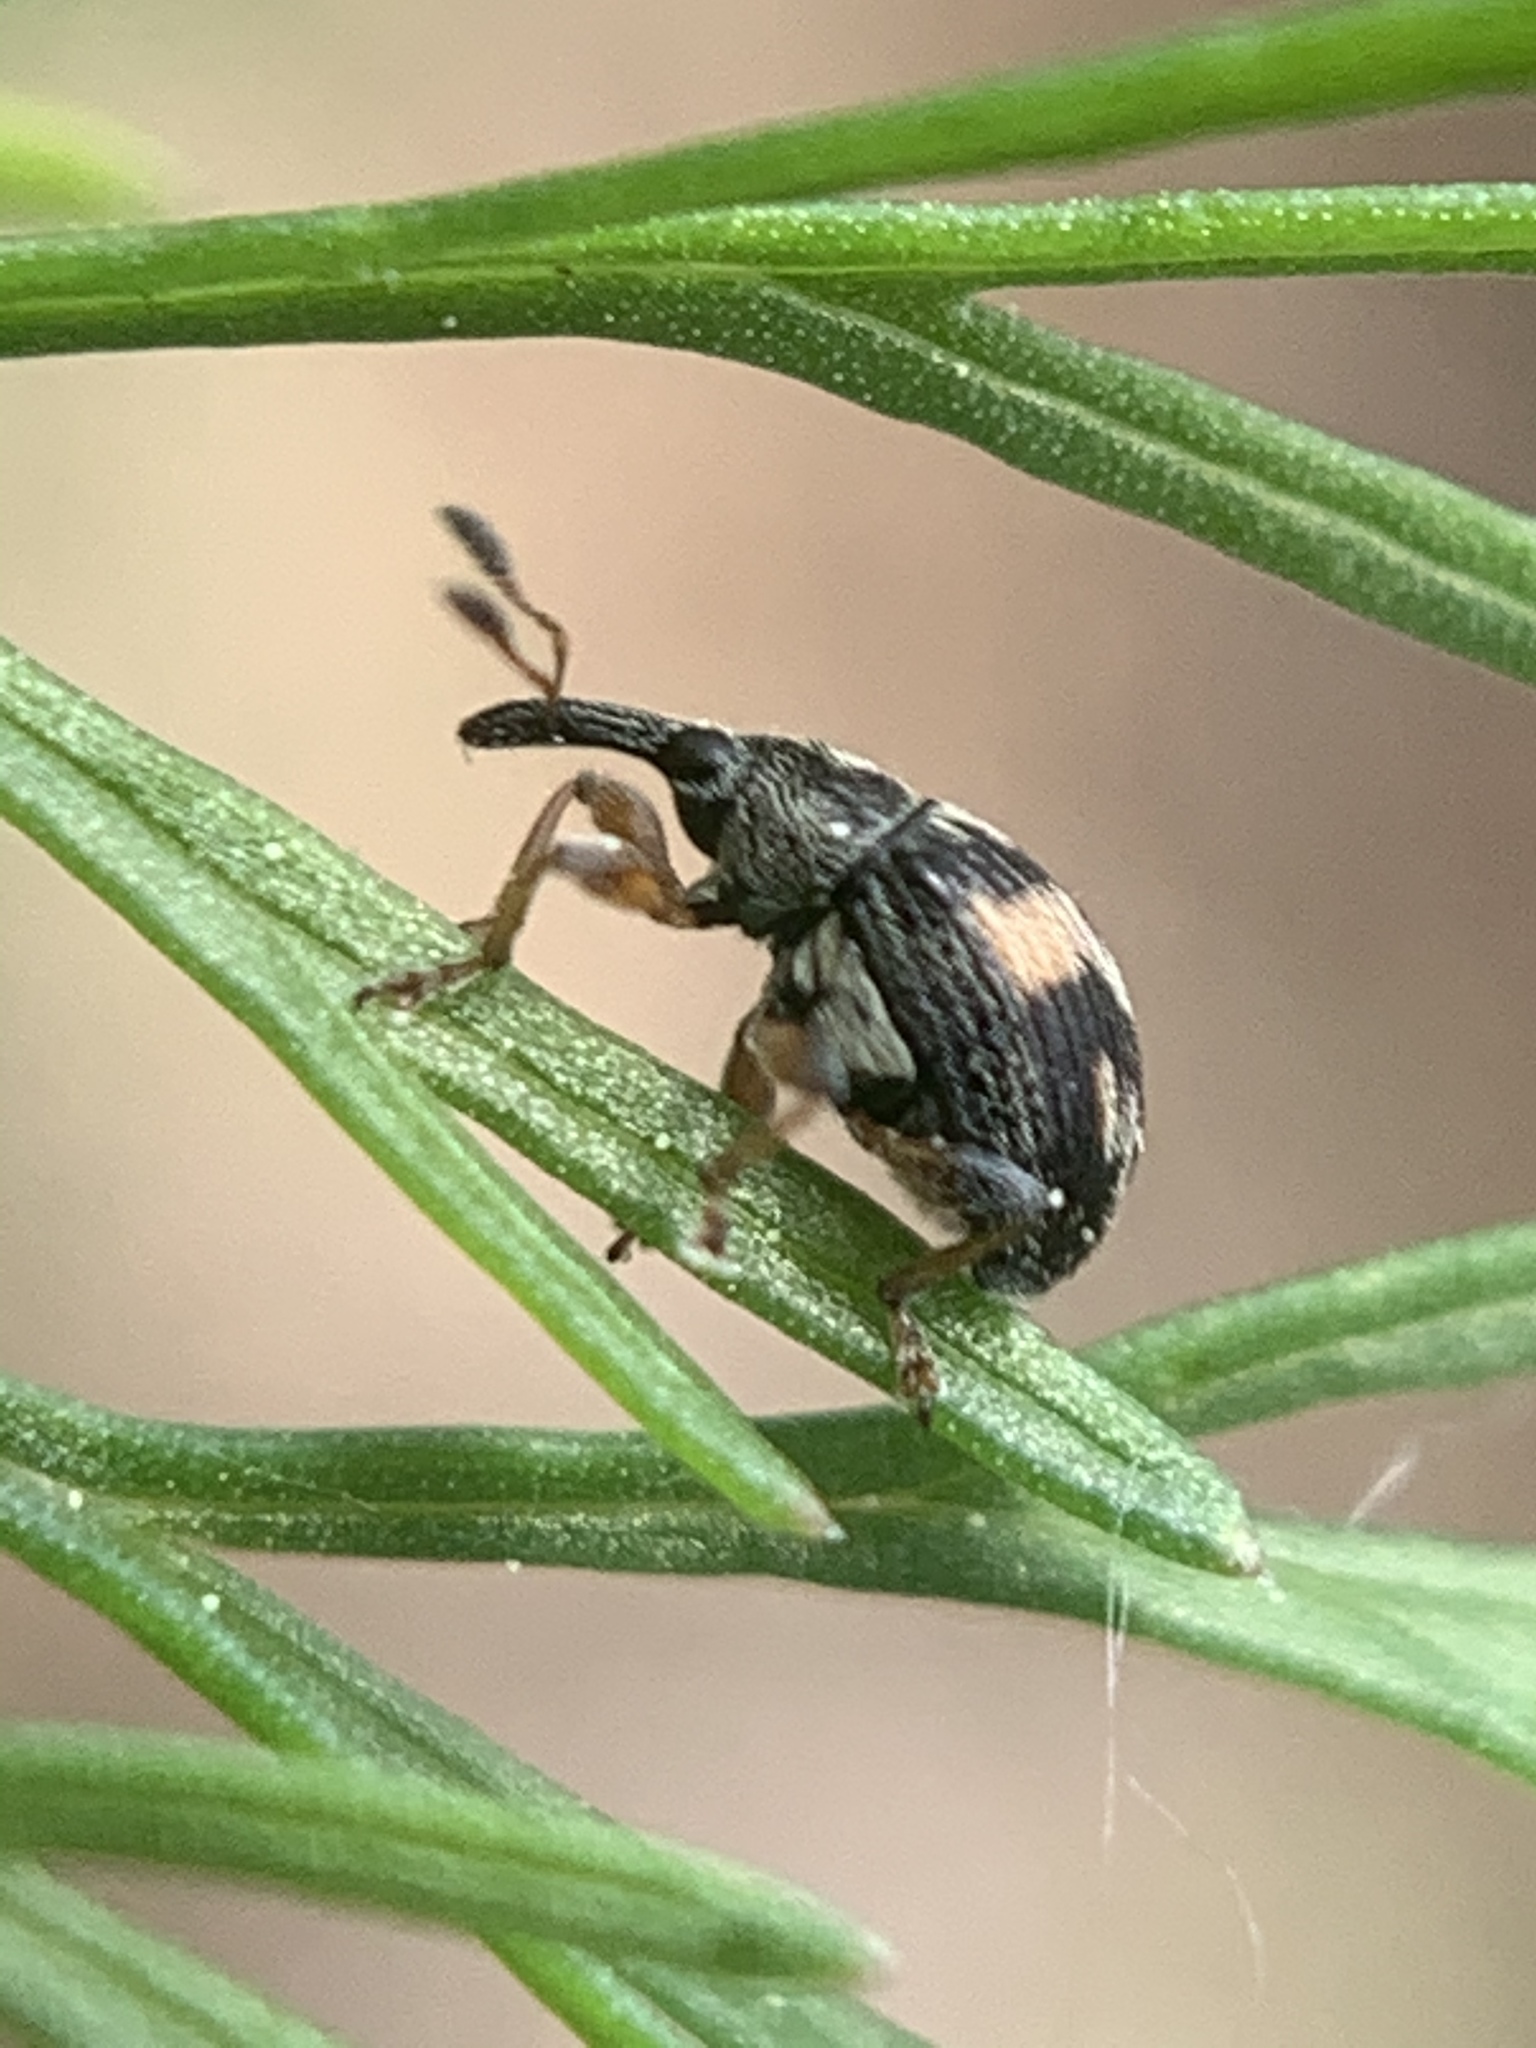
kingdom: Animalia
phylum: Arthropoda
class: Insecta
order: Coleoptera
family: Brentidae
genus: Nanophyes
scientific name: Nanophyes marmoratus
